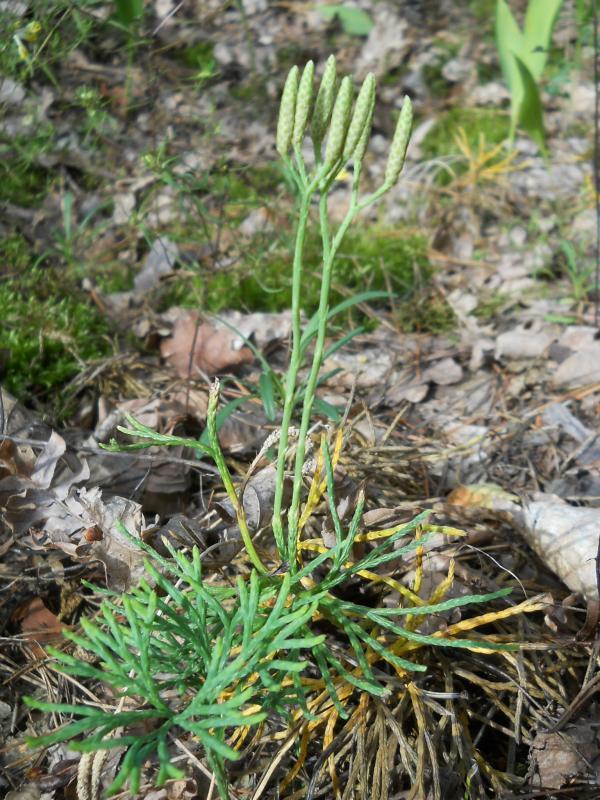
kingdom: Plantae
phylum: Tracheophyta
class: Lycopodiopsida
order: Lycopodiales
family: Lycopodiaceae
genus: Diphasiastrum
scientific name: Diphasiastrum complanatum
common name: Northern running-pine
